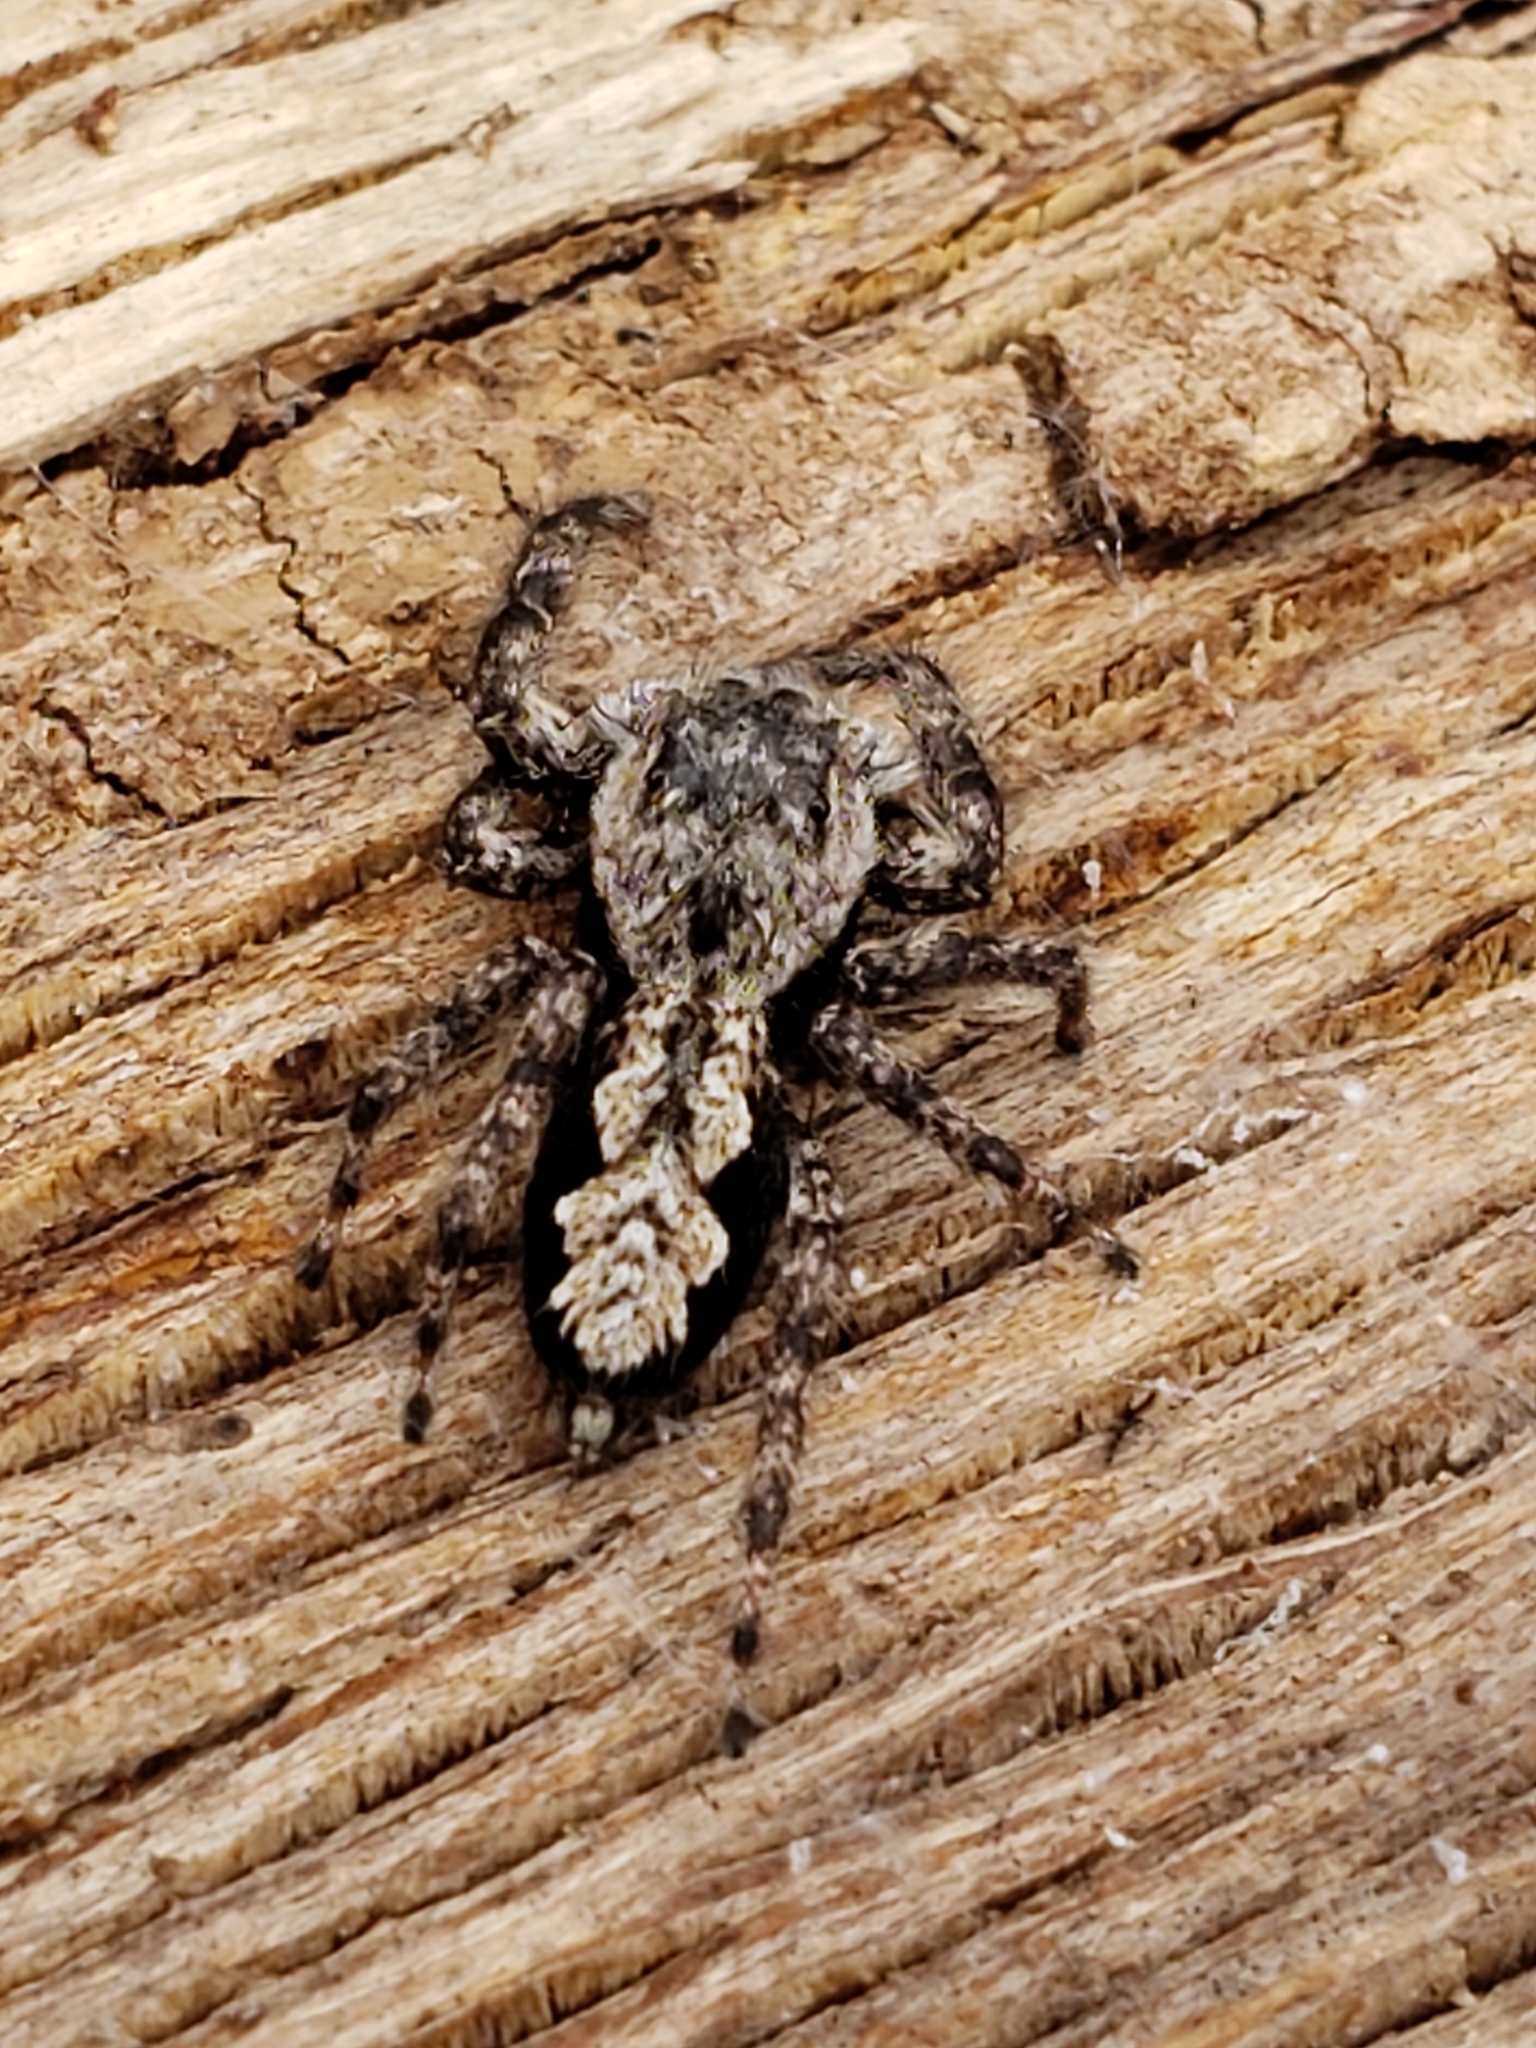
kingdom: Animalia
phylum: Arthropoda
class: Arachnida
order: Araneae
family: Salticidae
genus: Platycryptus
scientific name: Platycryptus undatus
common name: Tan jumping spider
